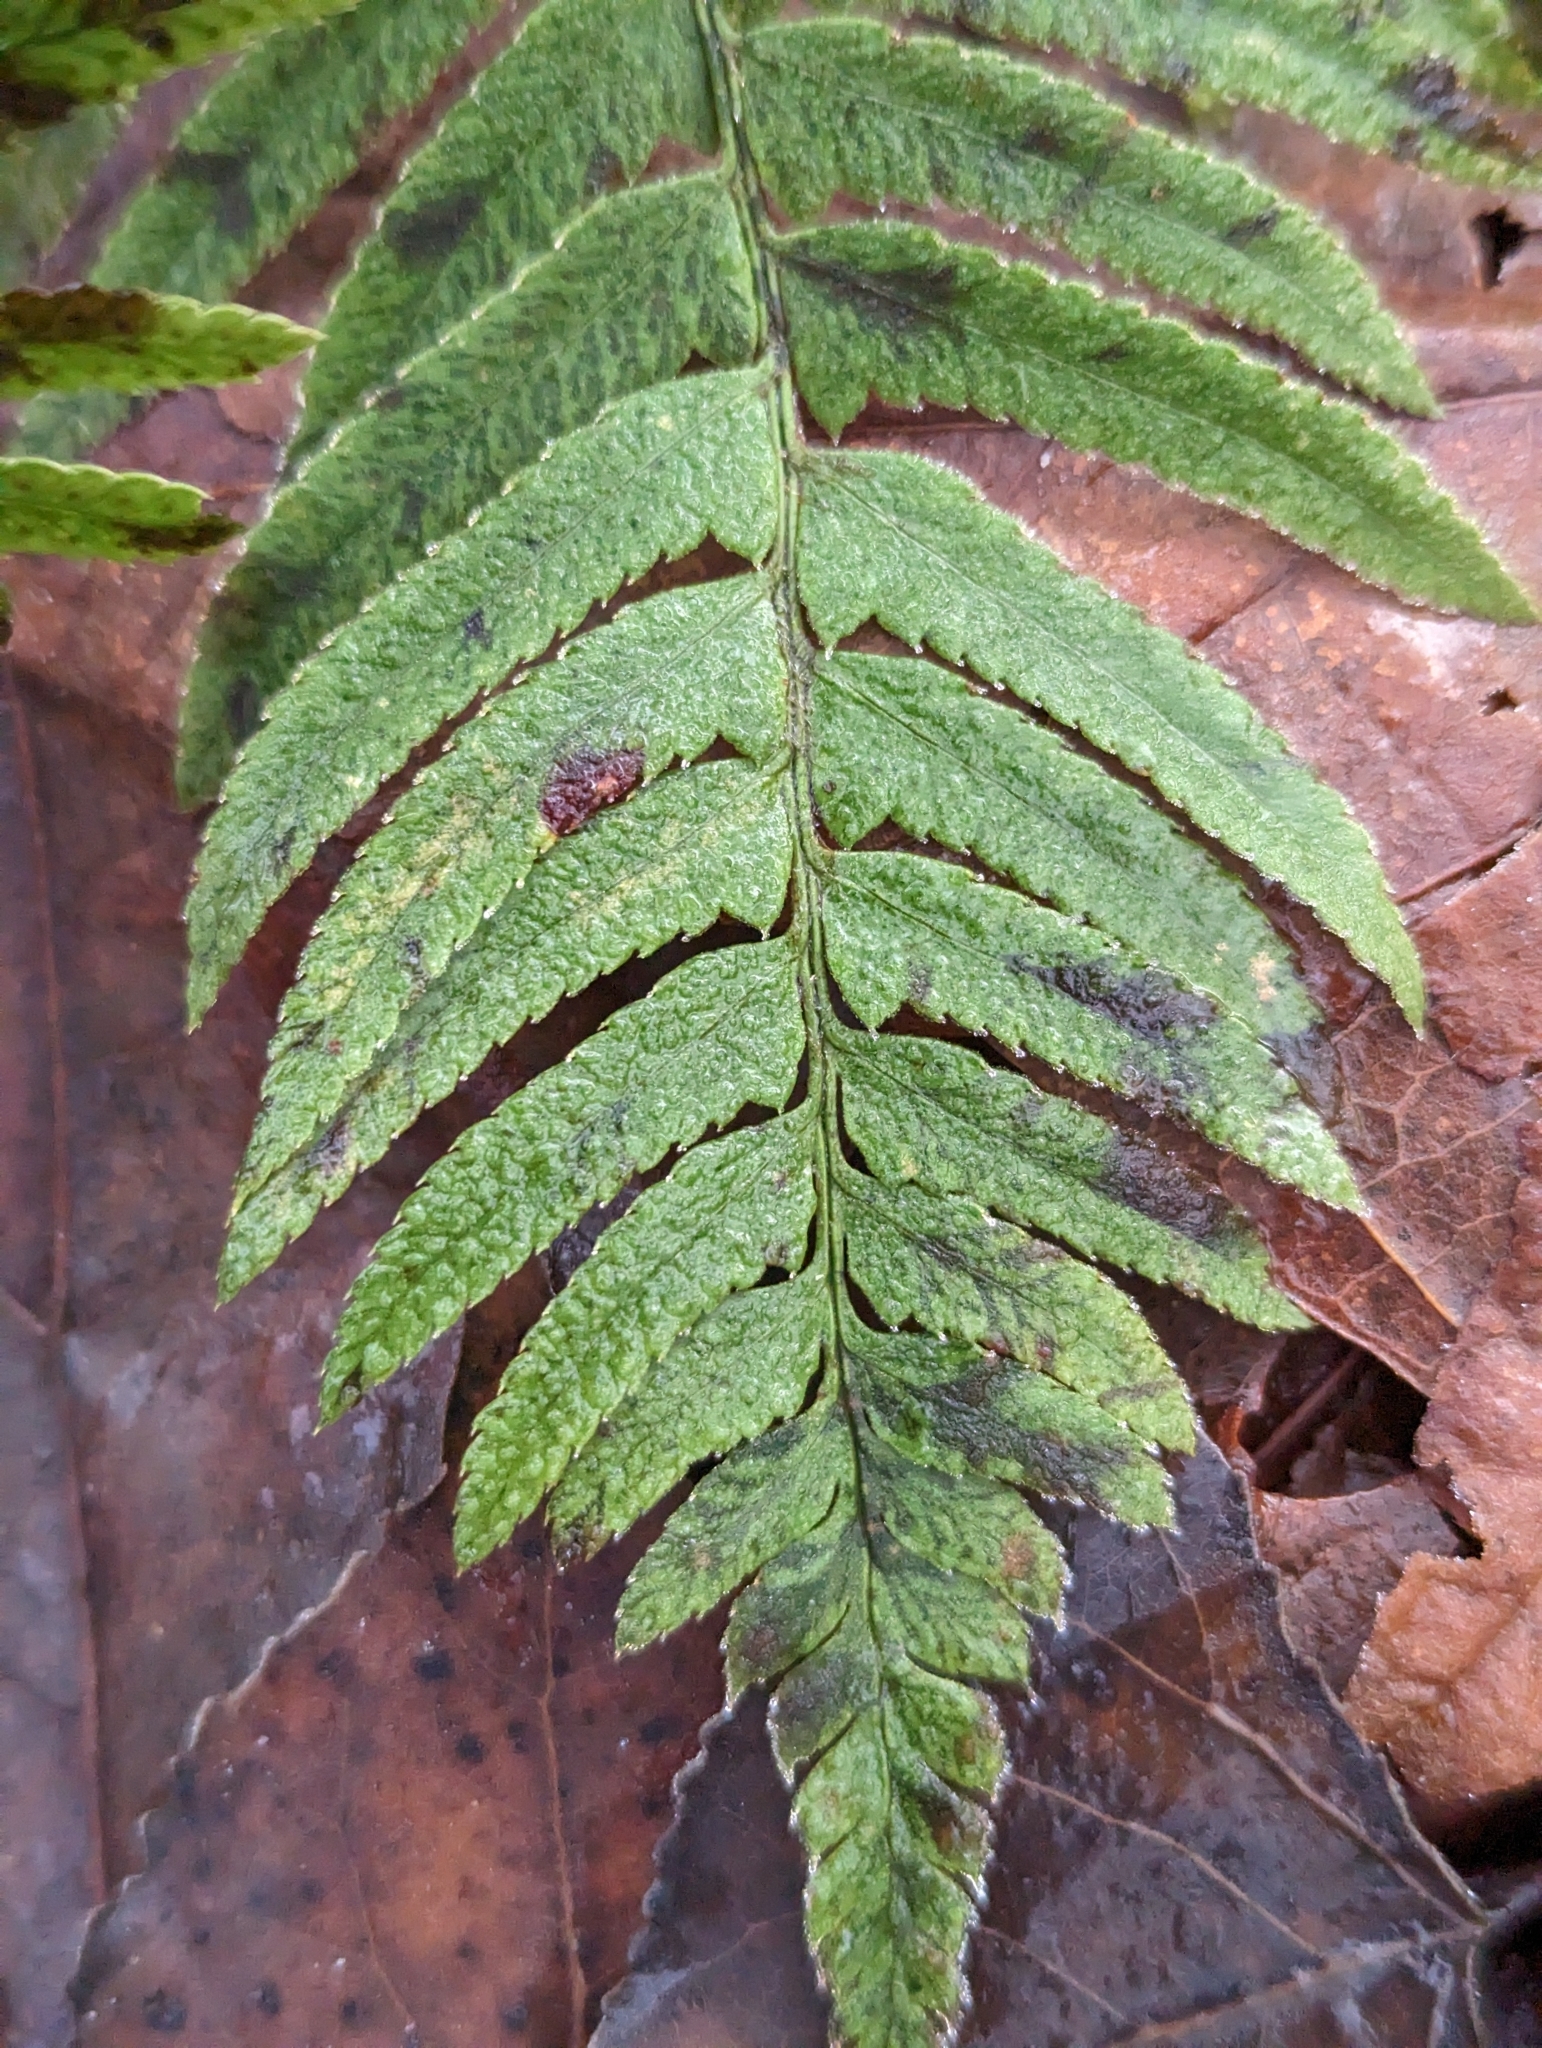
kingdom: Plantae
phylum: Tracheophyta
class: Polypodiopsida
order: Polypodiales
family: Dryopteridaceae
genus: Polystichum
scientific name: Polystichum munitum
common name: Western sword-fern
